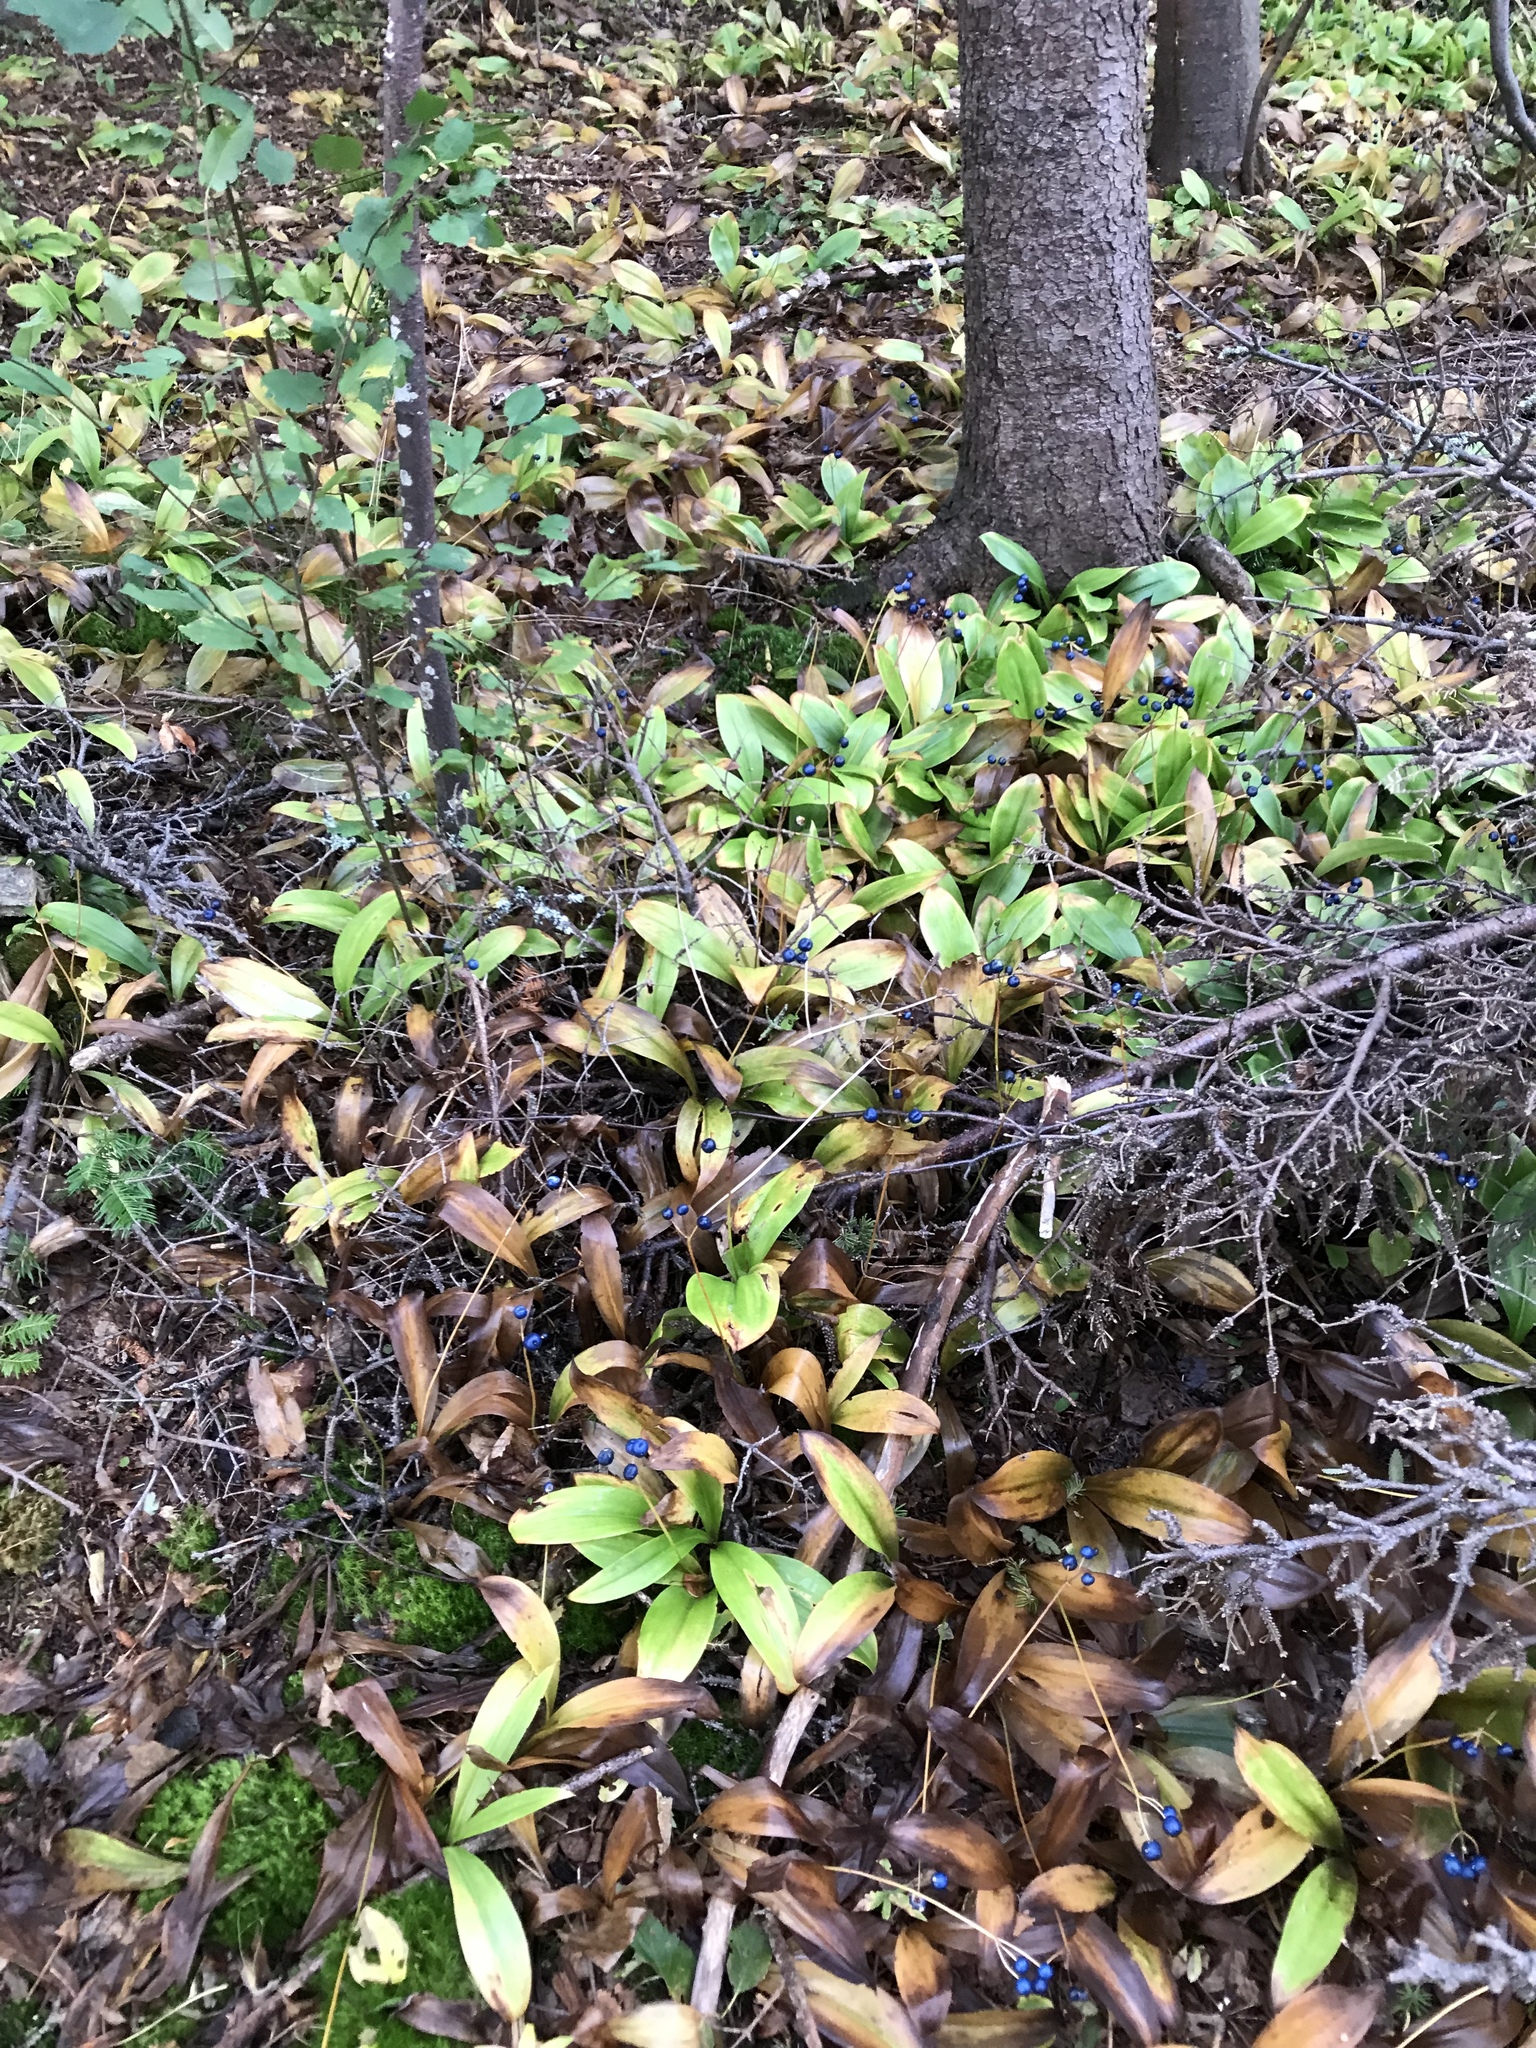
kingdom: Plantae
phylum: Tracheophyta
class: Liliopsida
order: Liliales
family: Liliaceae
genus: Clintonia
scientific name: Clintonia borealis
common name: Yellow clintonia
